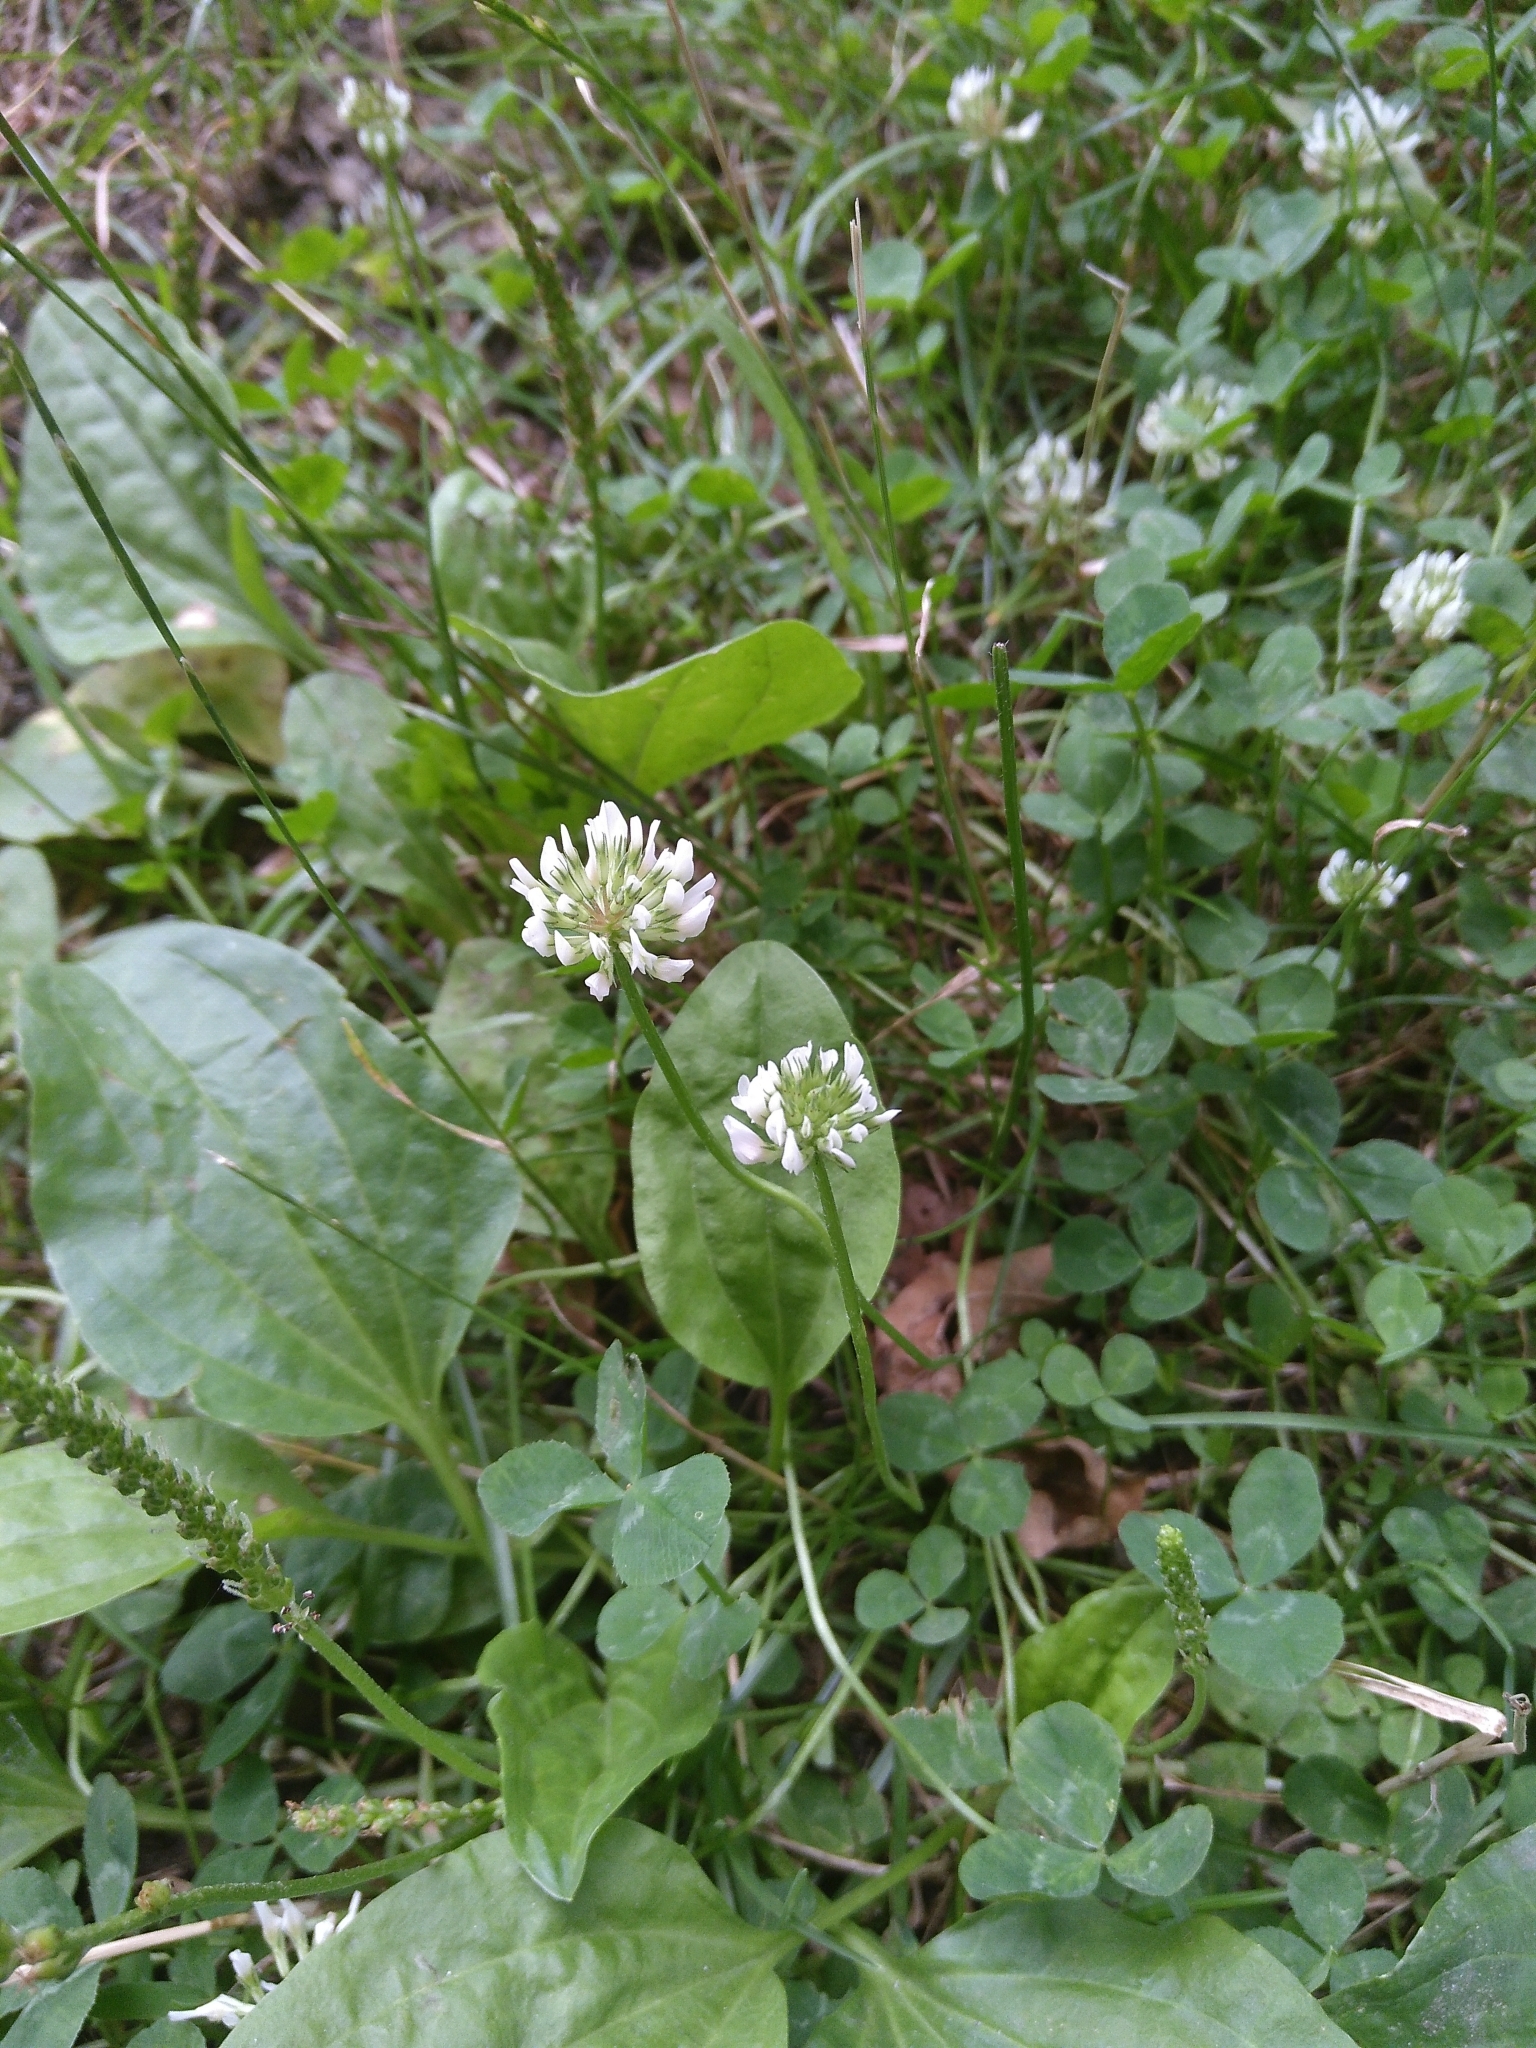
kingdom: Plantae
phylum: Tracheophyta
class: Magnoliopsida
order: Fabales
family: Fabaceae
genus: Trifolium
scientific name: Trifolium repens
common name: White clover
